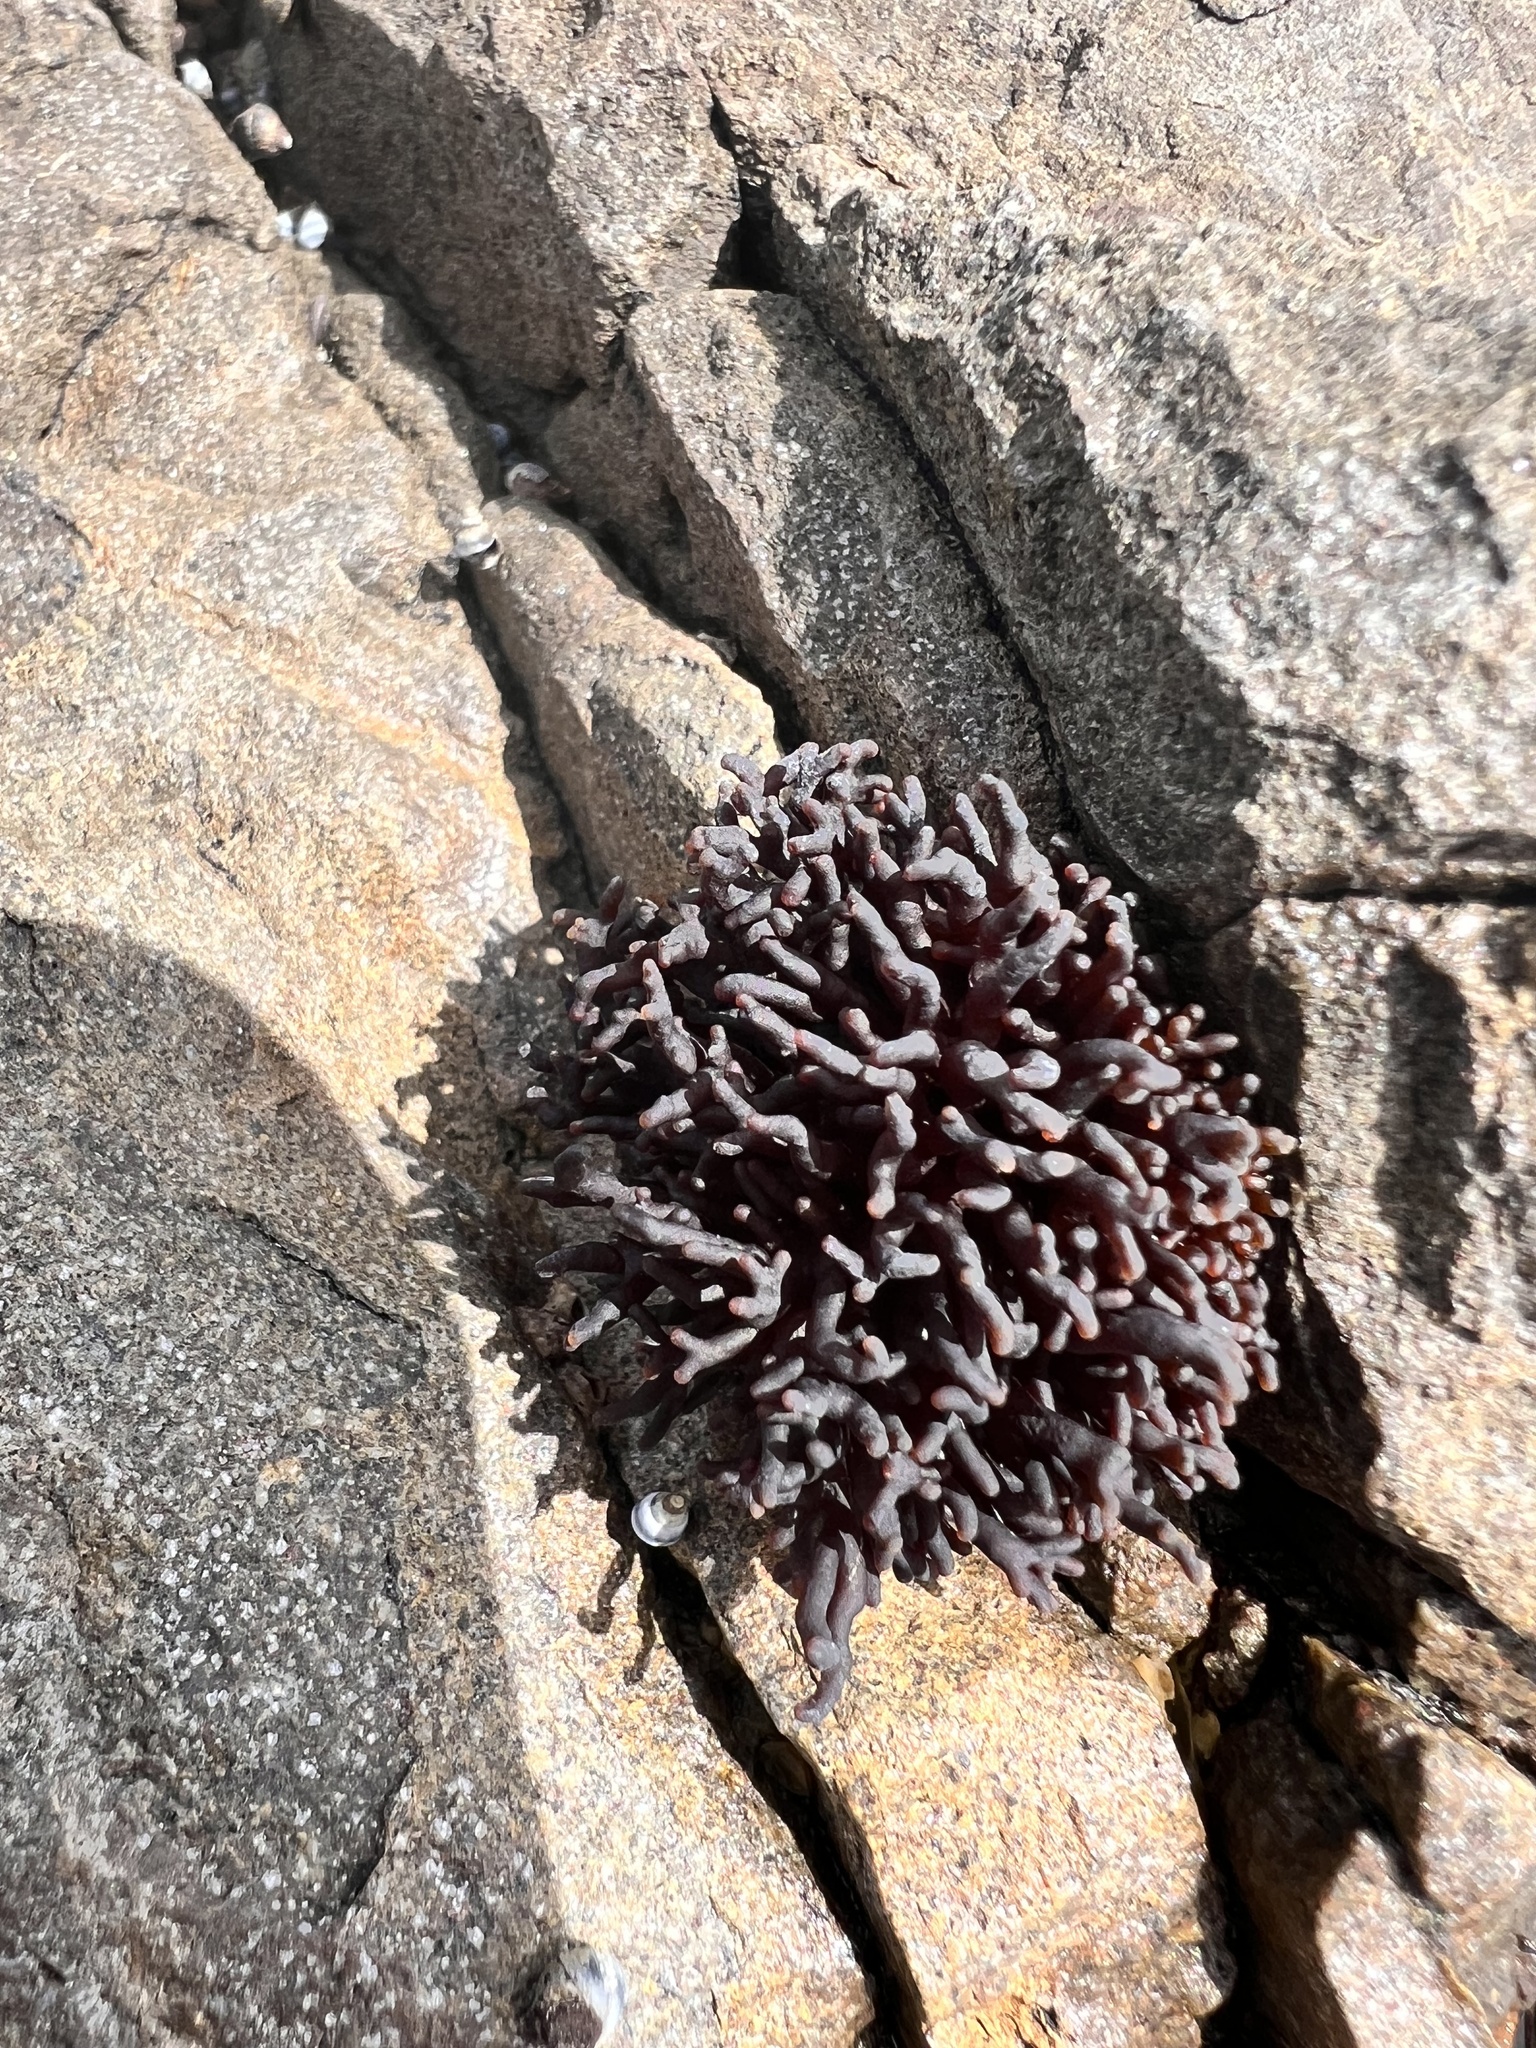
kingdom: Plantae
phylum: Rhodophyta
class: Florideophyceae
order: Hildenbrandiales
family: Hildenbrandiaceae
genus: Apophlaea
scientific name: Apophlaea lyallii
